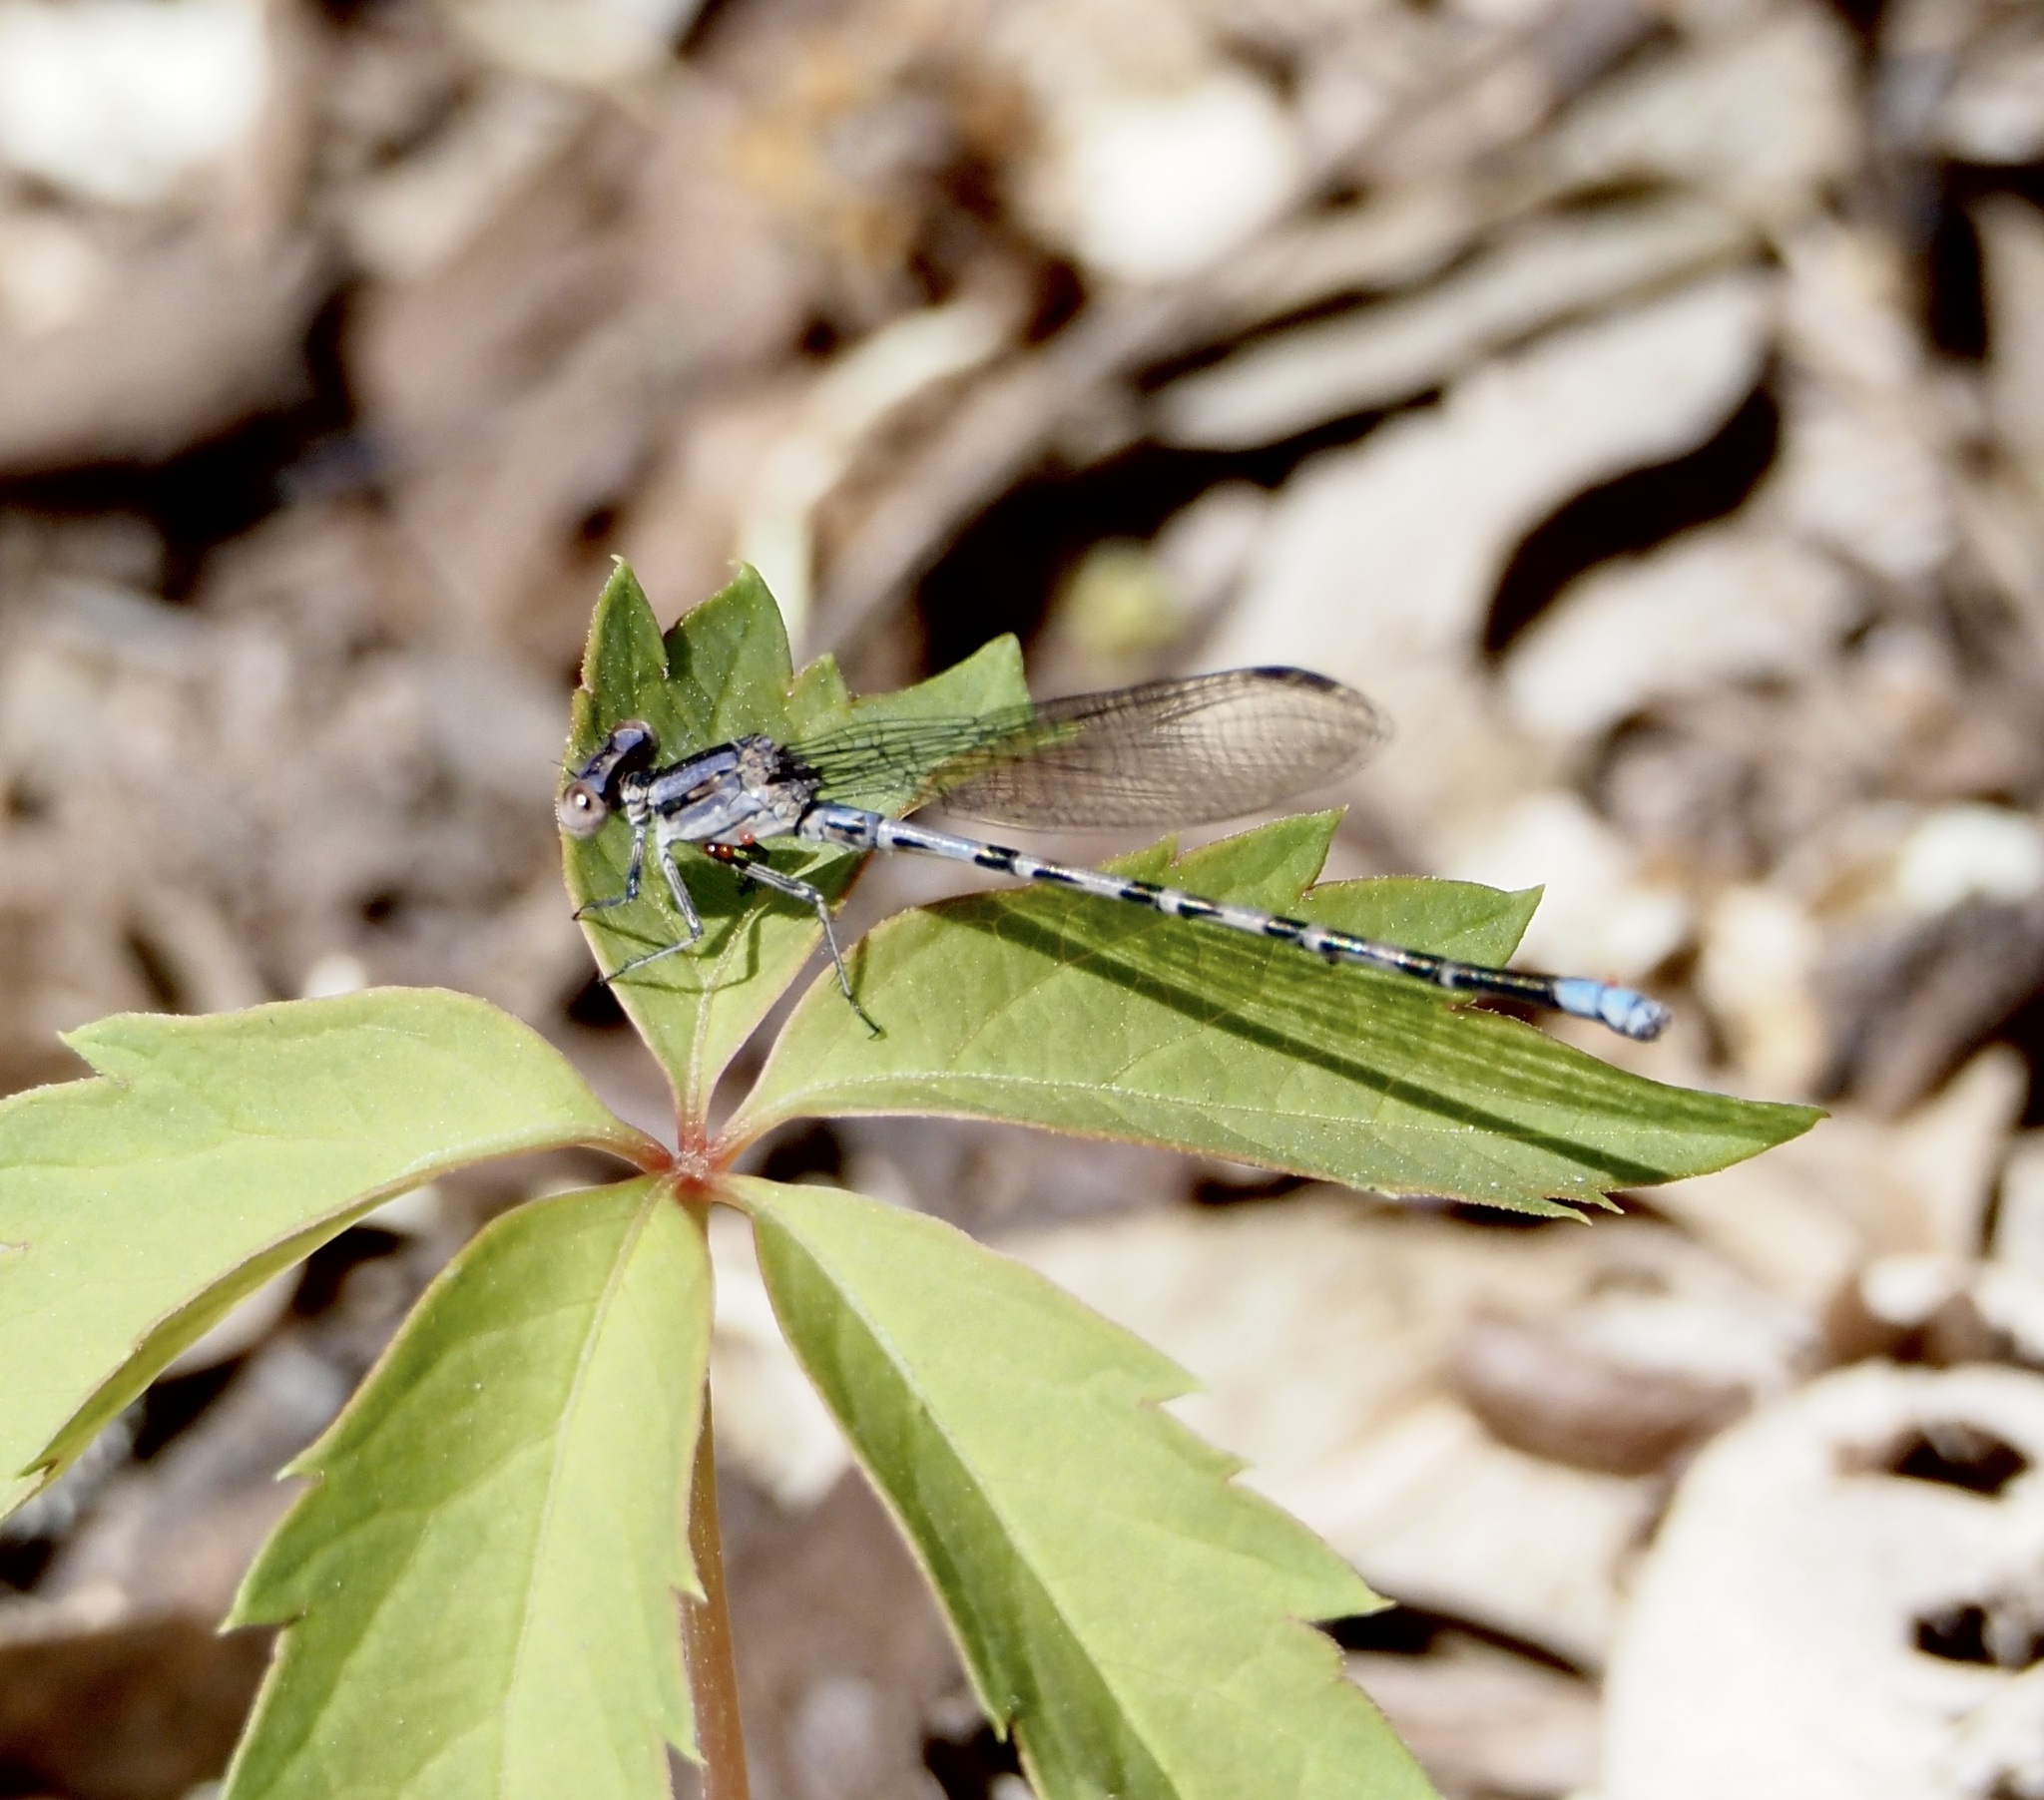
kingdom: Animalia
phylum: Arthropoda
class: Insecta
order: Odonata
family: Coenagrionidae
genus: Argia
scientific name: Argia immunda
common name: Kiowa dancer
